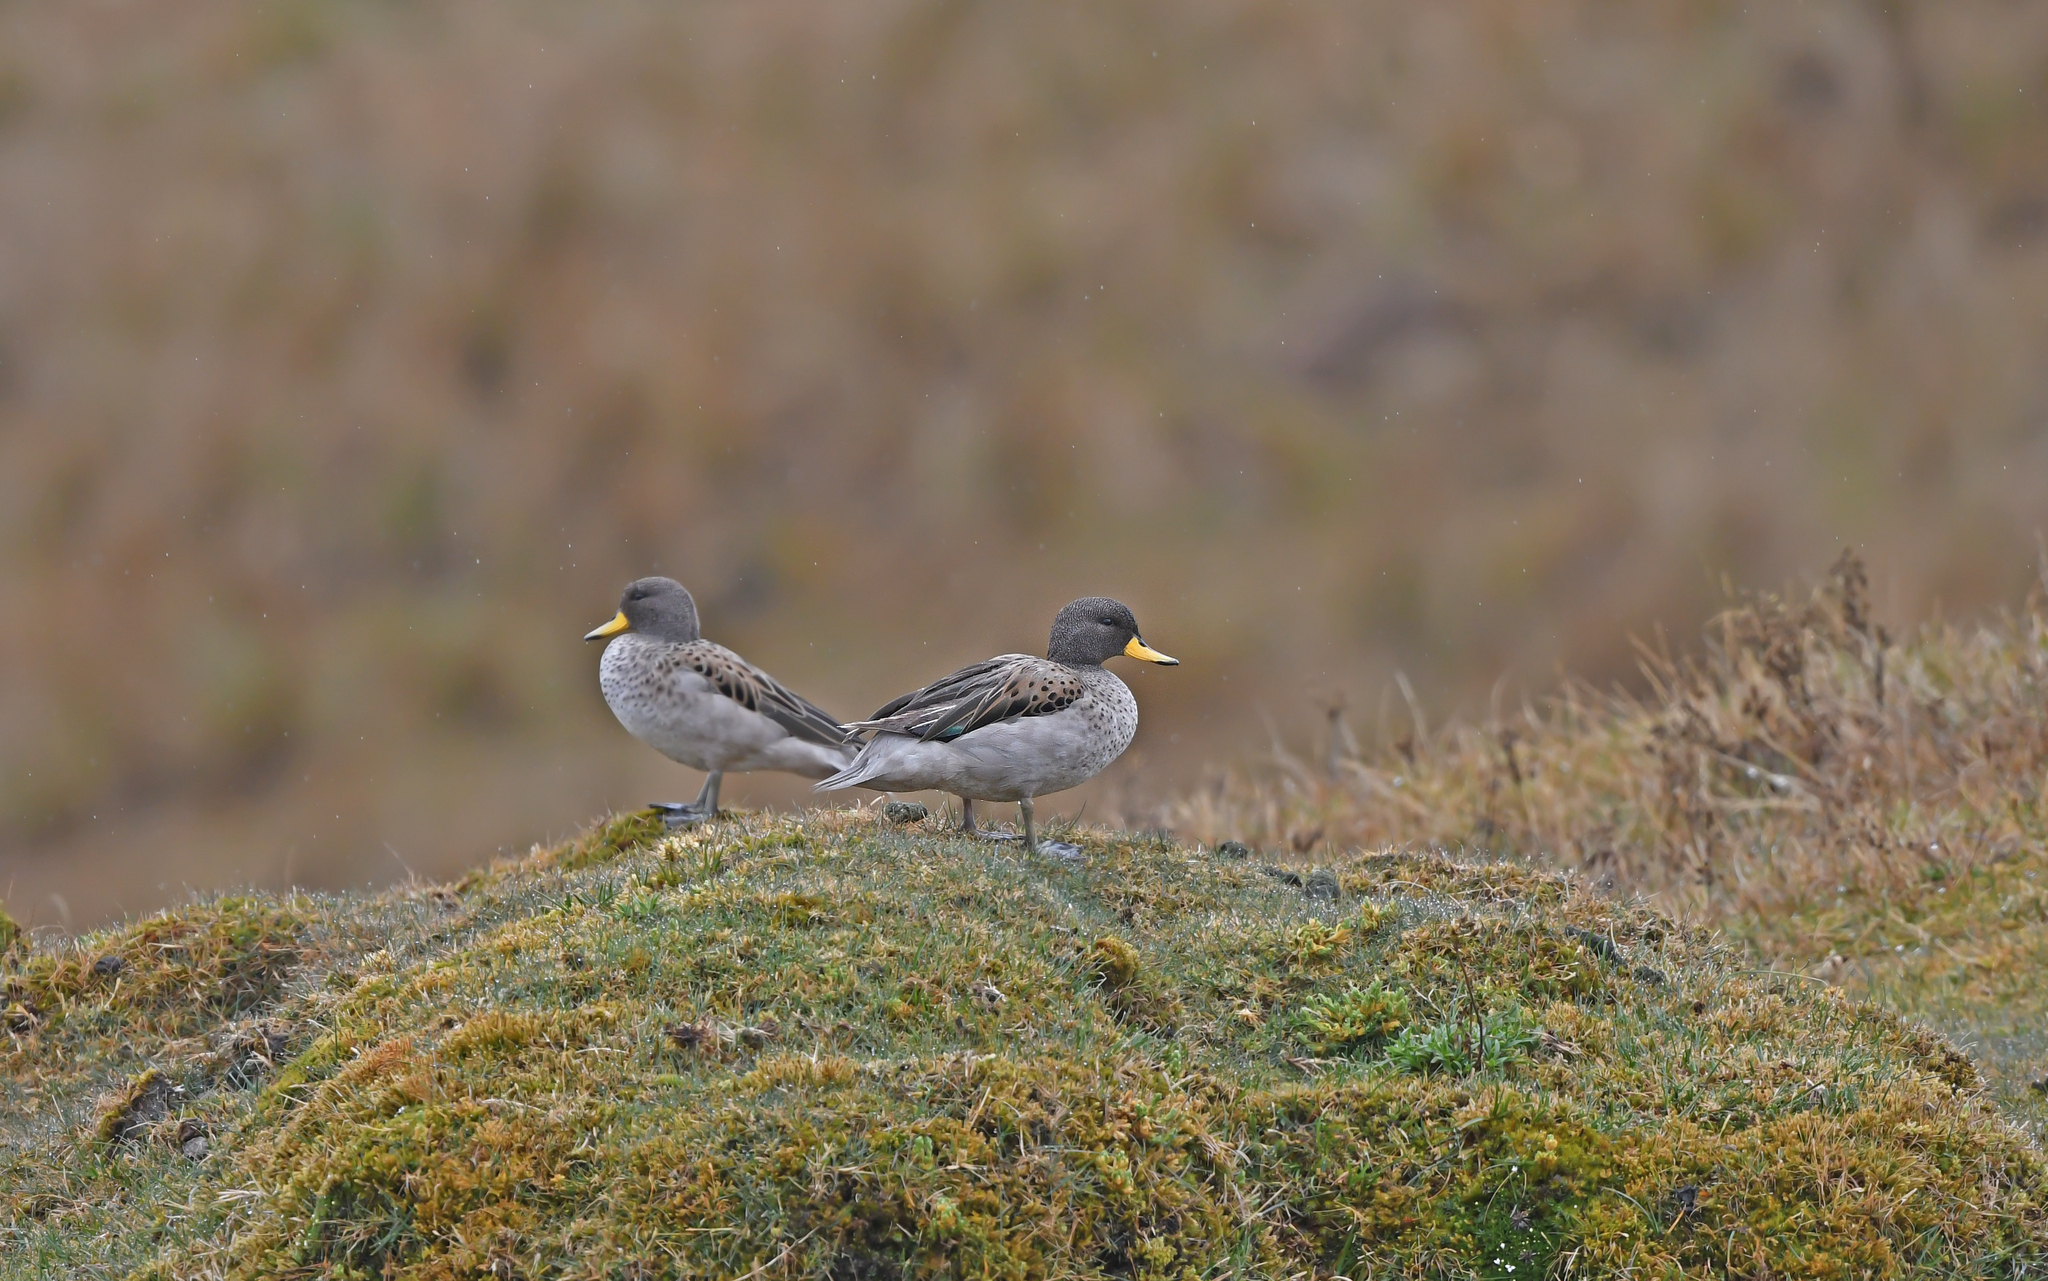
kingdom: Animalia
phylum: Chordata
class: Aves
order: Anseriformes
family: Anatidae
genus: Anas
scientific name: Anas flavirostris
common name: Yellow-billed teal
